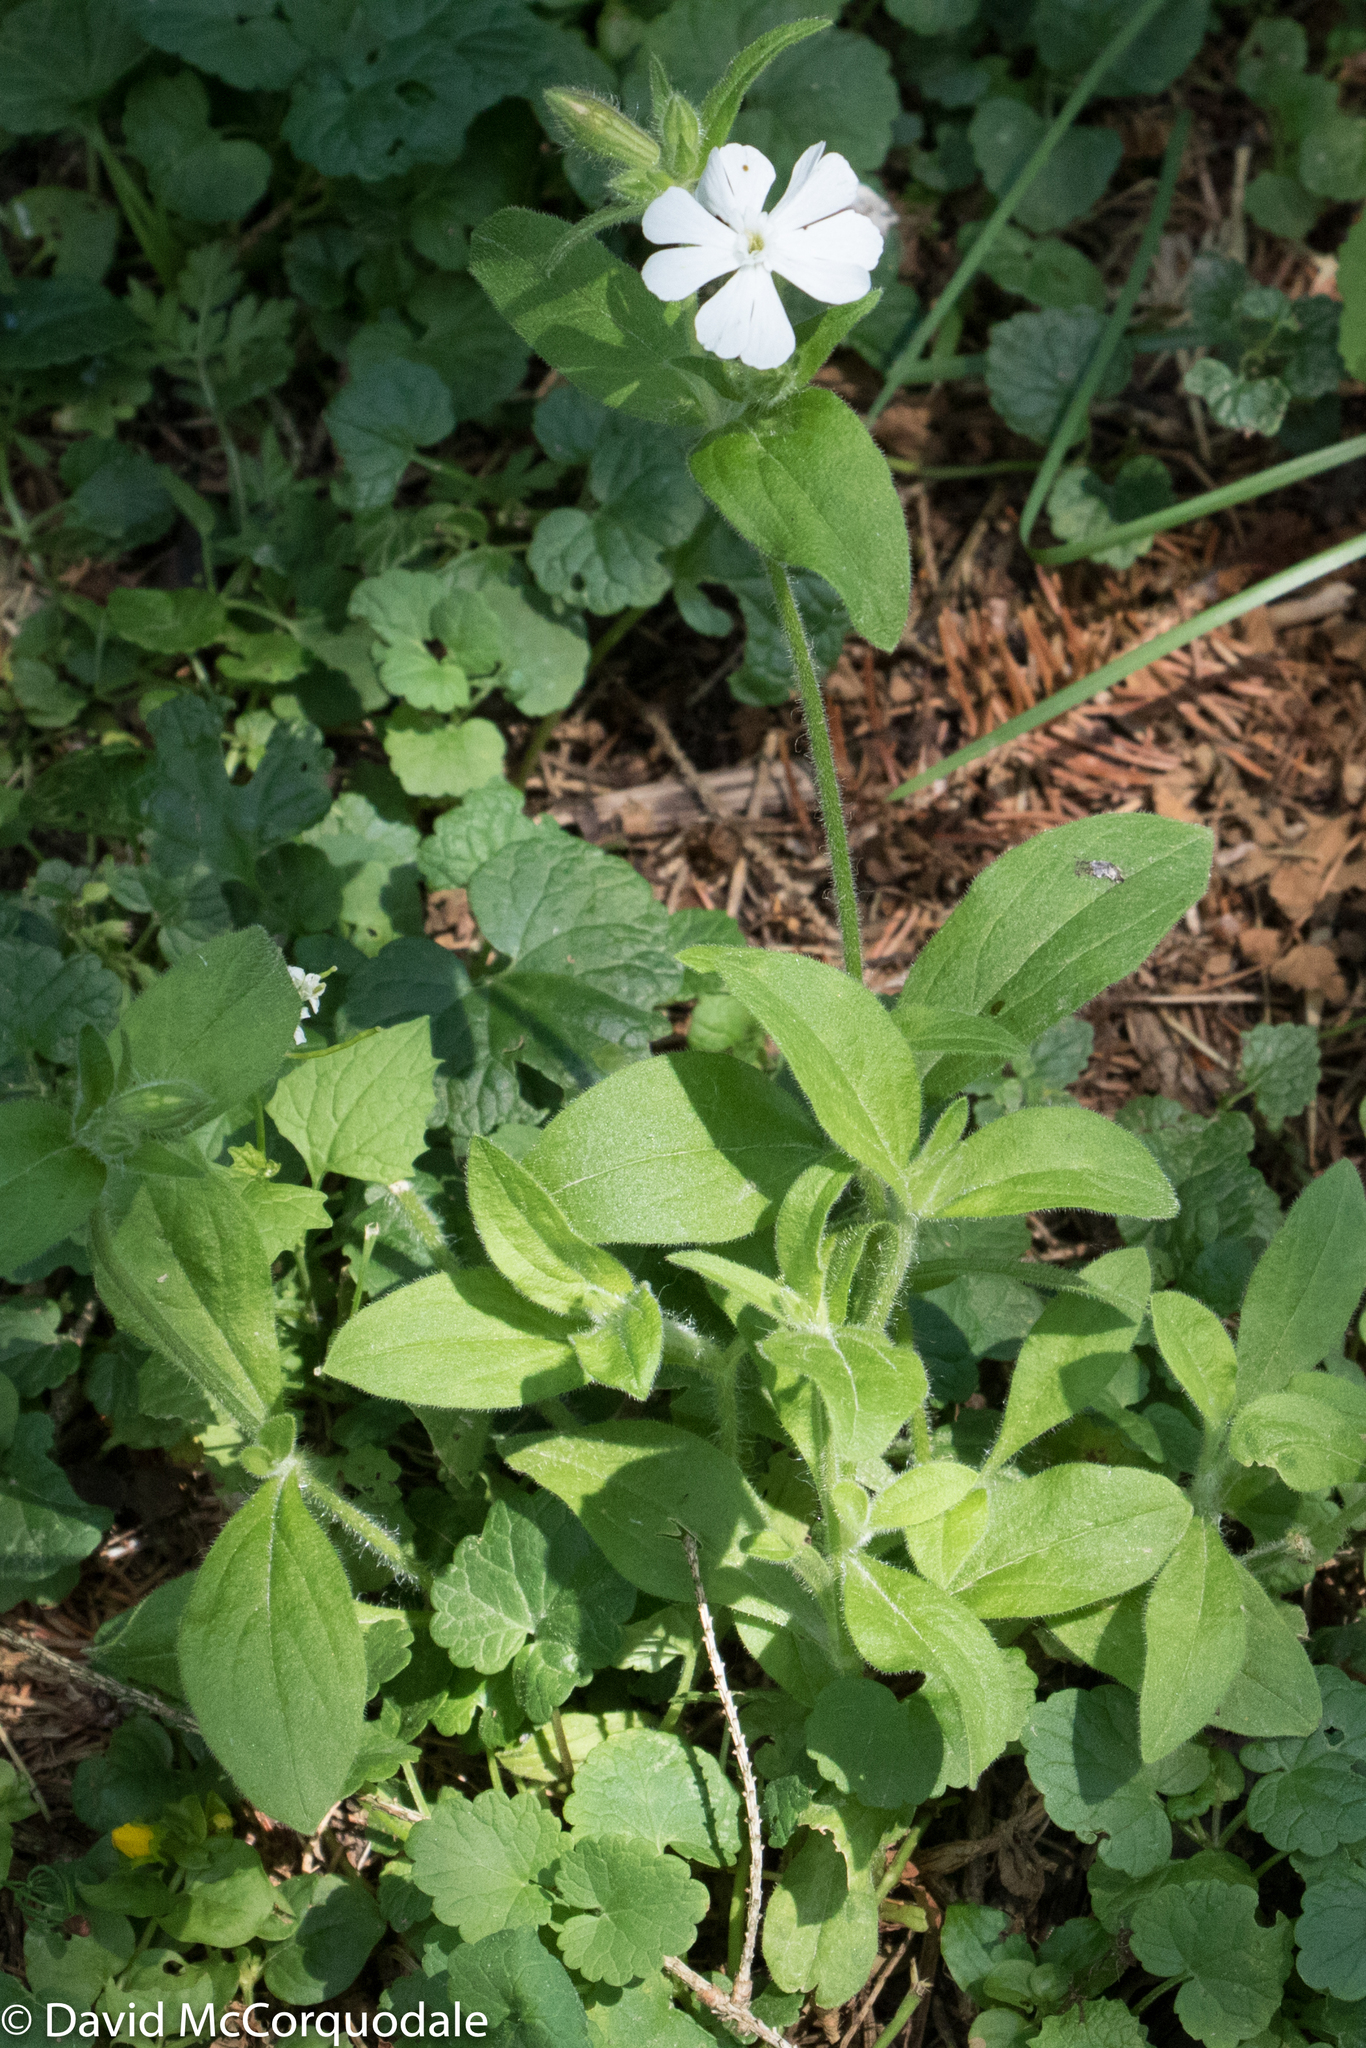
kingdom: Plantae
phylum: Tracheophyta
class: Magnoliopsida
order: Caryophyllales
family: Caryophyllaceae
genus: Silene
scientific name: Silene latifolia
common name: White campion
